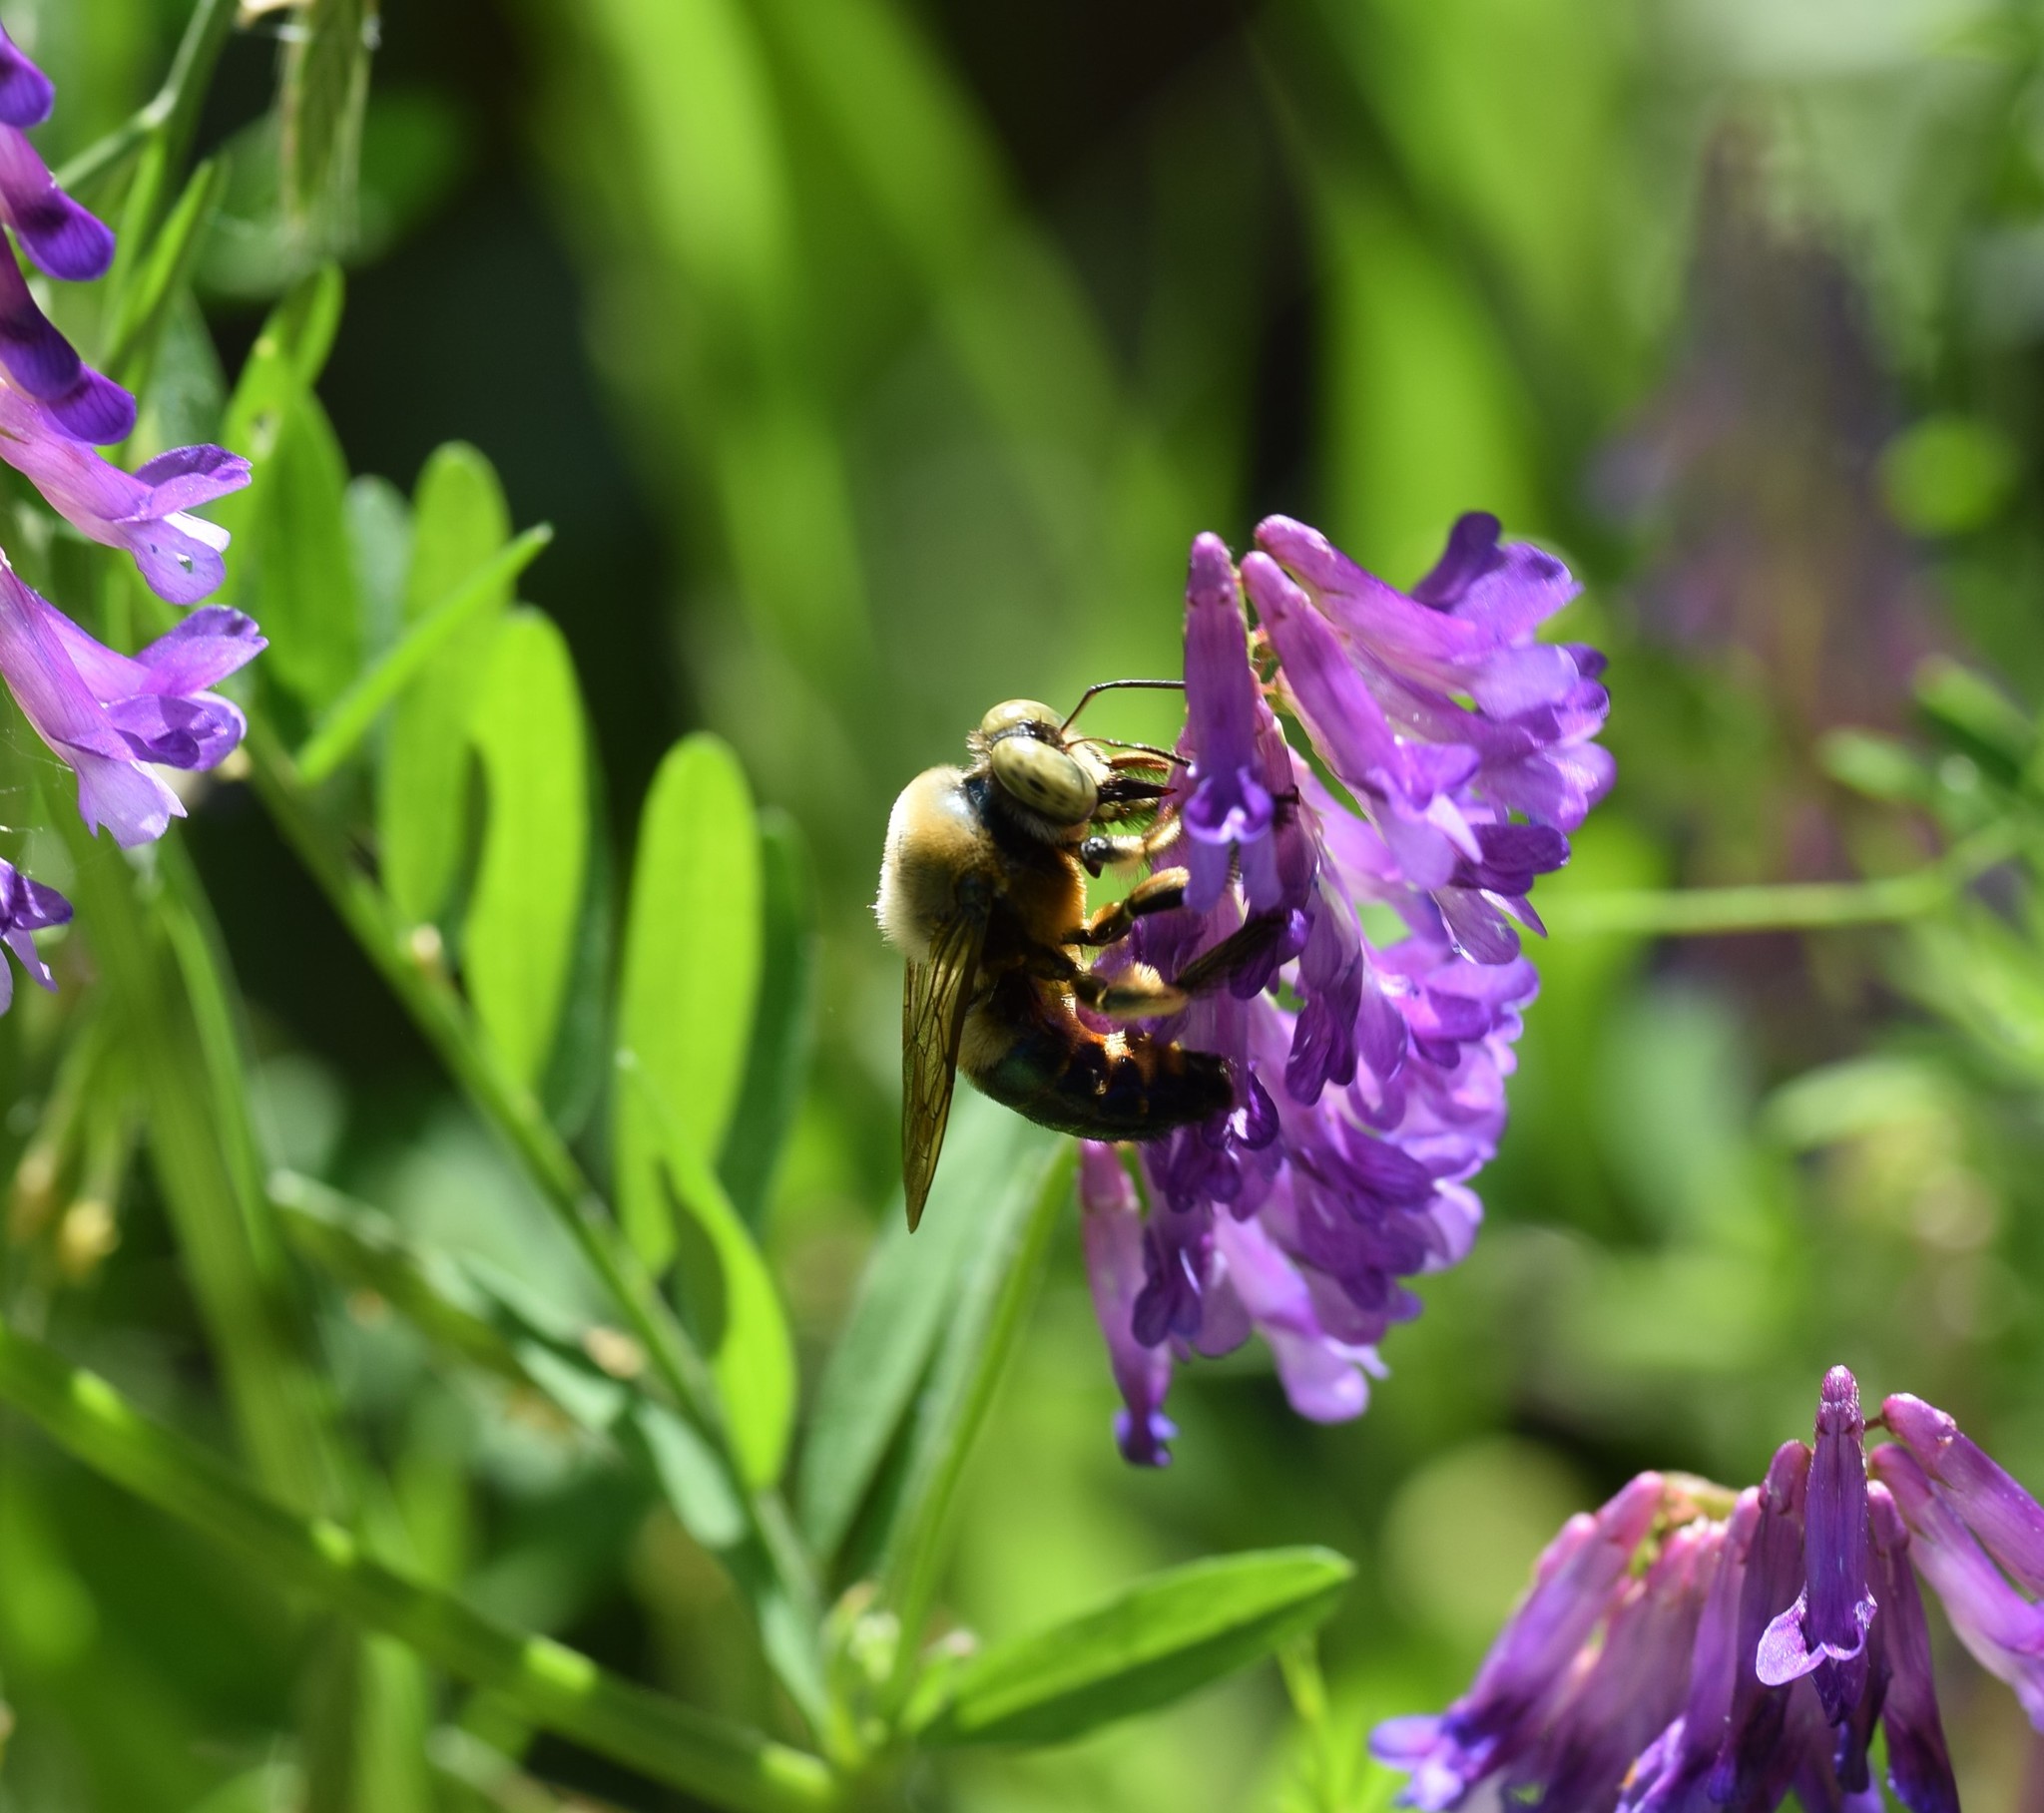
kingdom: Animalia
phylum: Arthropoda
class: Insecta
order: Hymenoptera
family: Apidae
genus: Xylocopa
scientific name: Xylocopa micans
